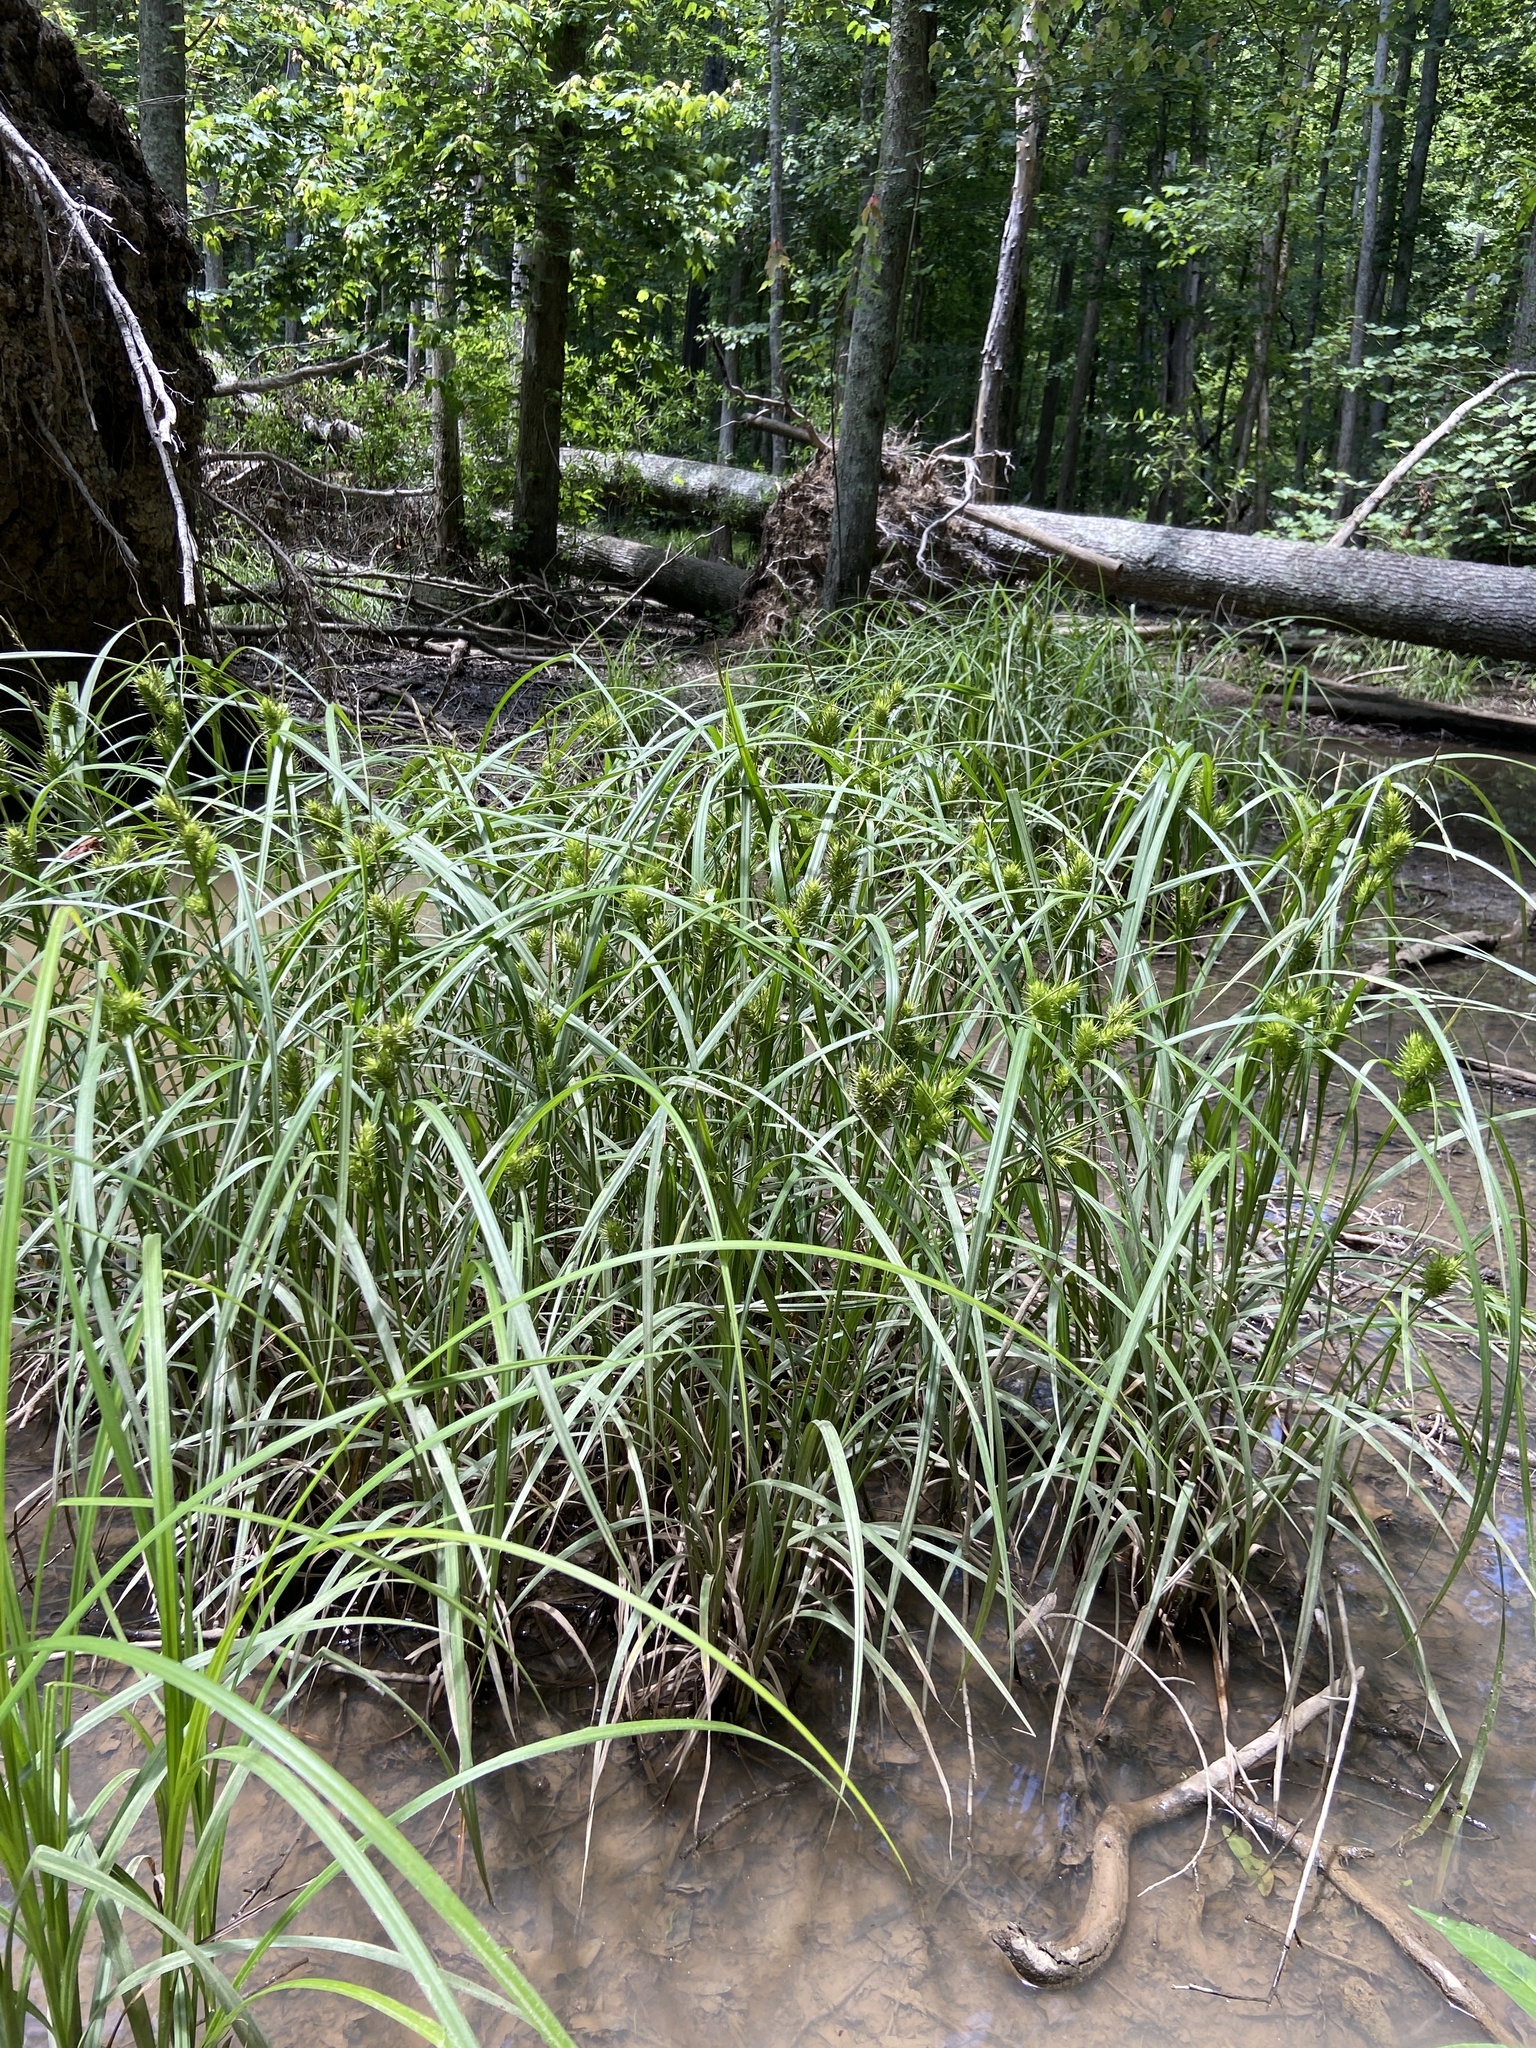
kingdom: Plantae
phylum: Tracheophyta
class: Liliopsida
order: Poales
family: Cyperaceae
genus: Carex
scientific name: Carex lupulina
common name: Hop sedge
